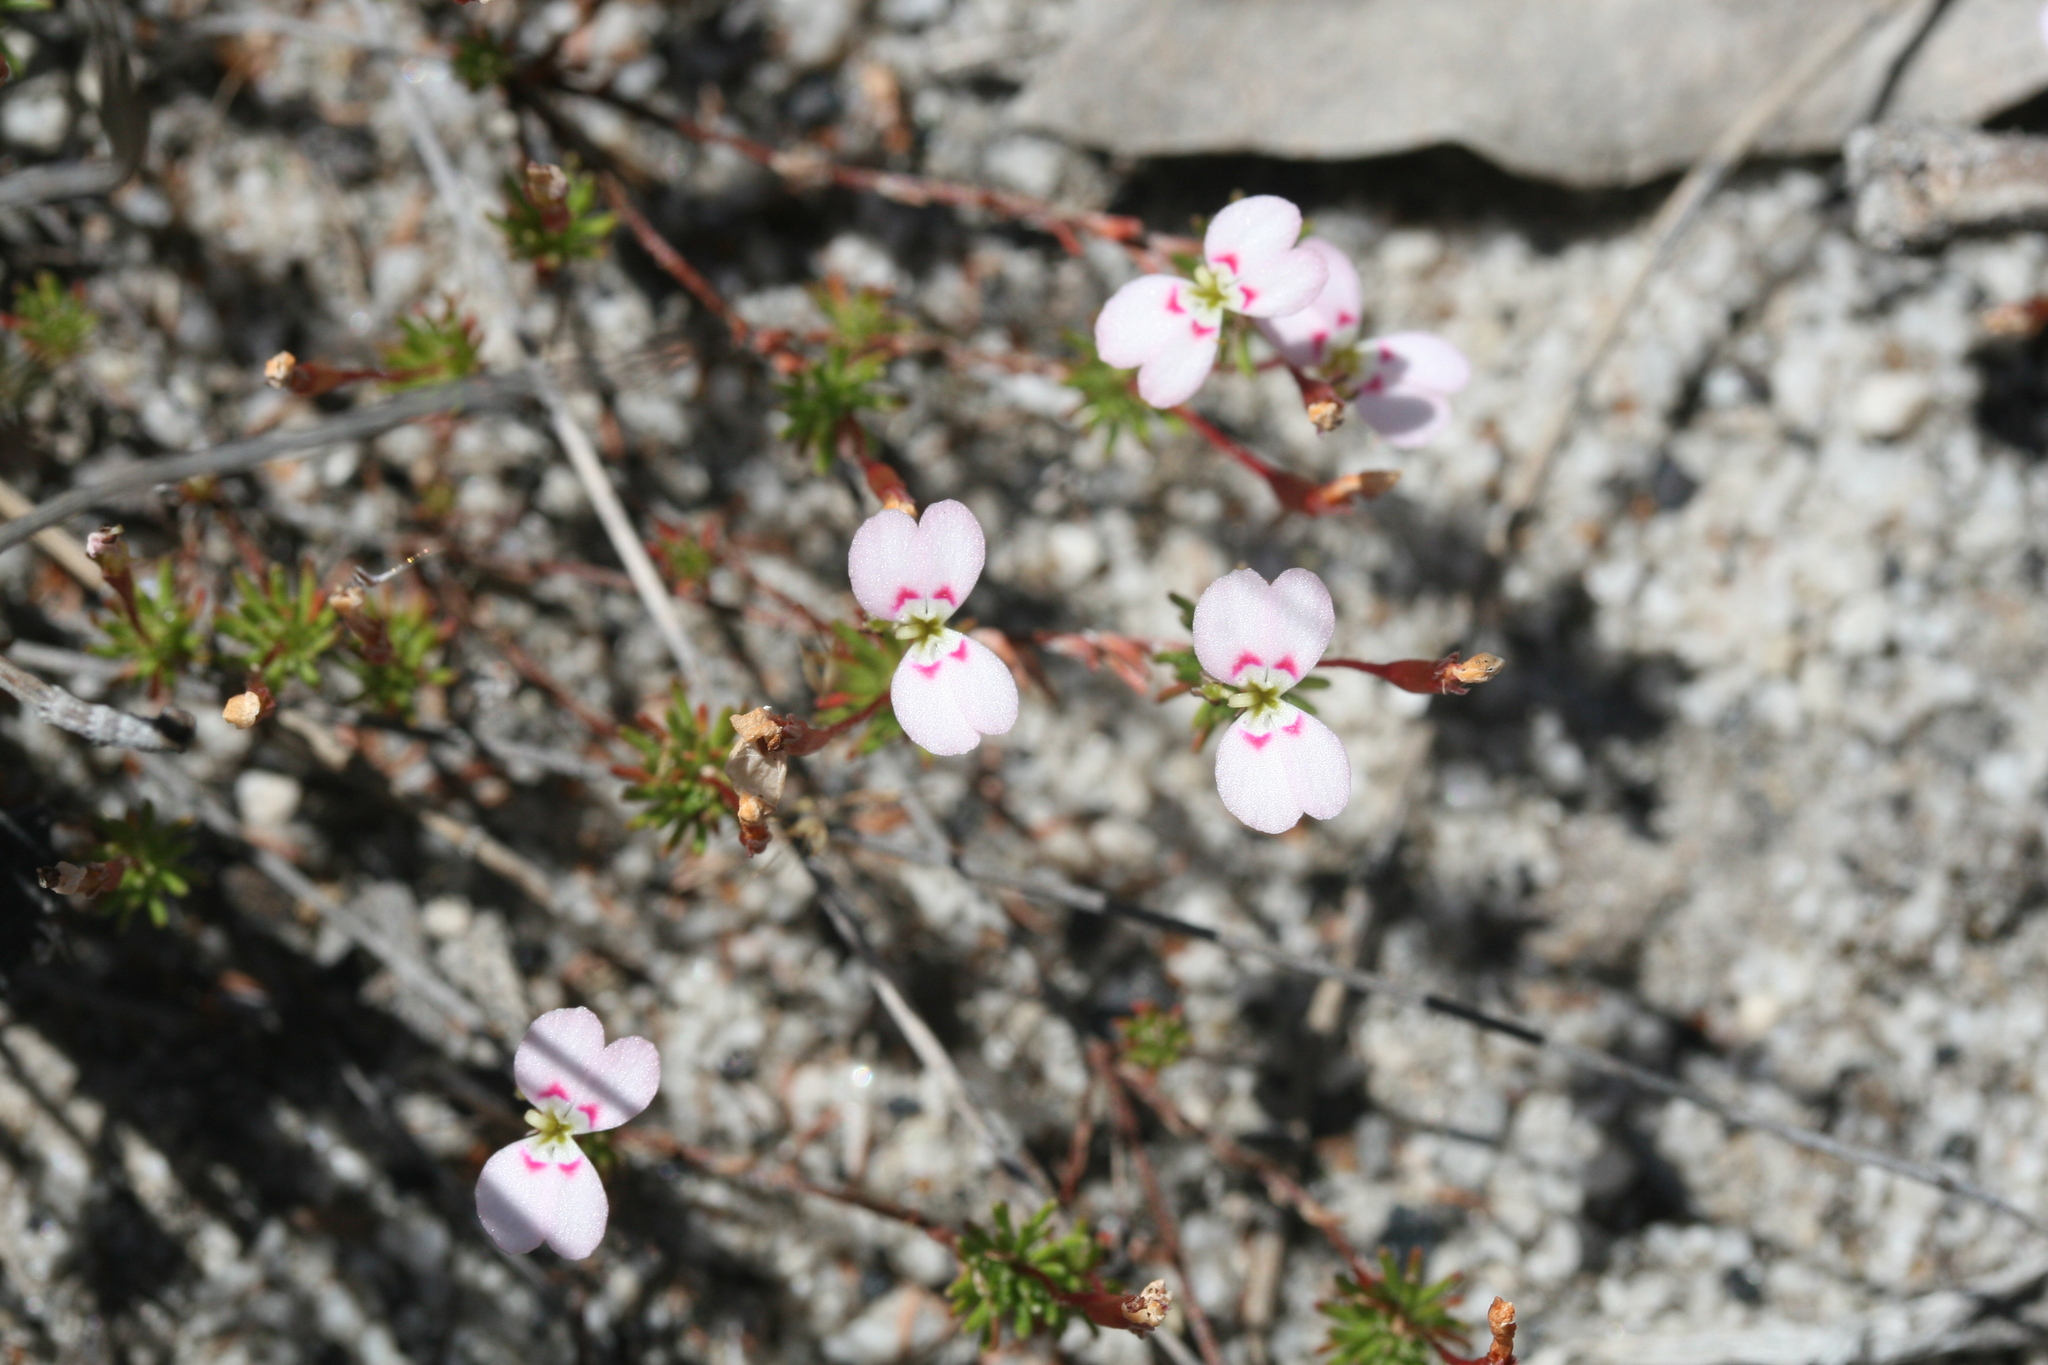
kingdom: Plantae
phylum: Tracheophyta
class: Magnoliopsida
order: Asterales
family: Stylidiaceae
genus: Stylidium
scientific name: Stylidium pingrupense
